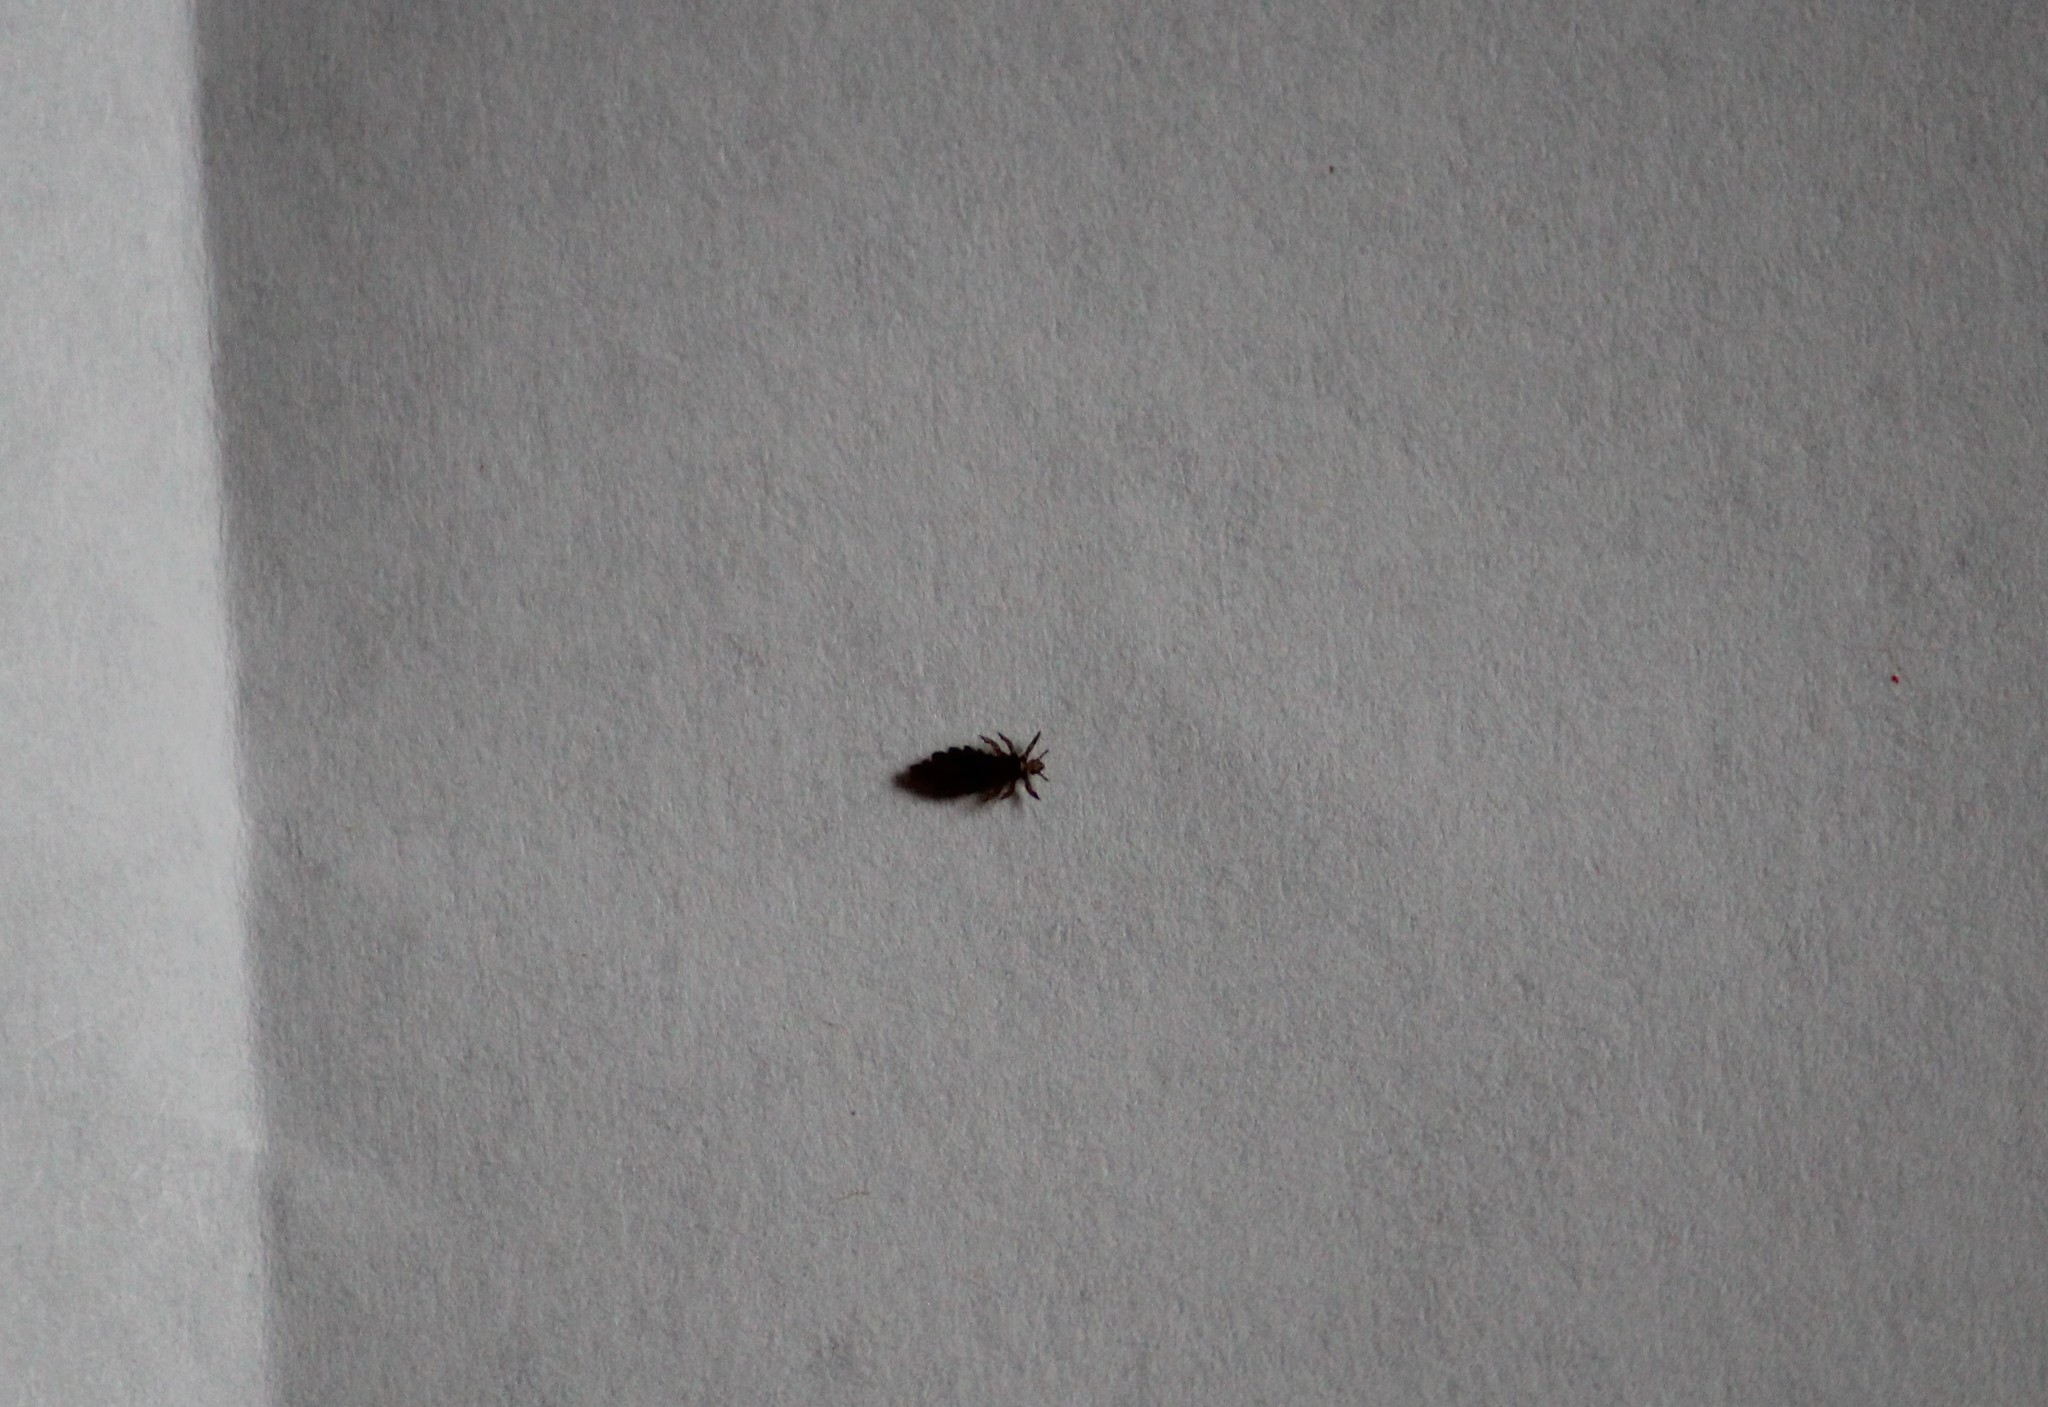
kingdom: Animalia
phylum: Arthropoda
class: Insecta
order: Psocodea
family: Pediculidae
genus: Pediculus
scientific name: Pediculus humanus
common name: Body louse
